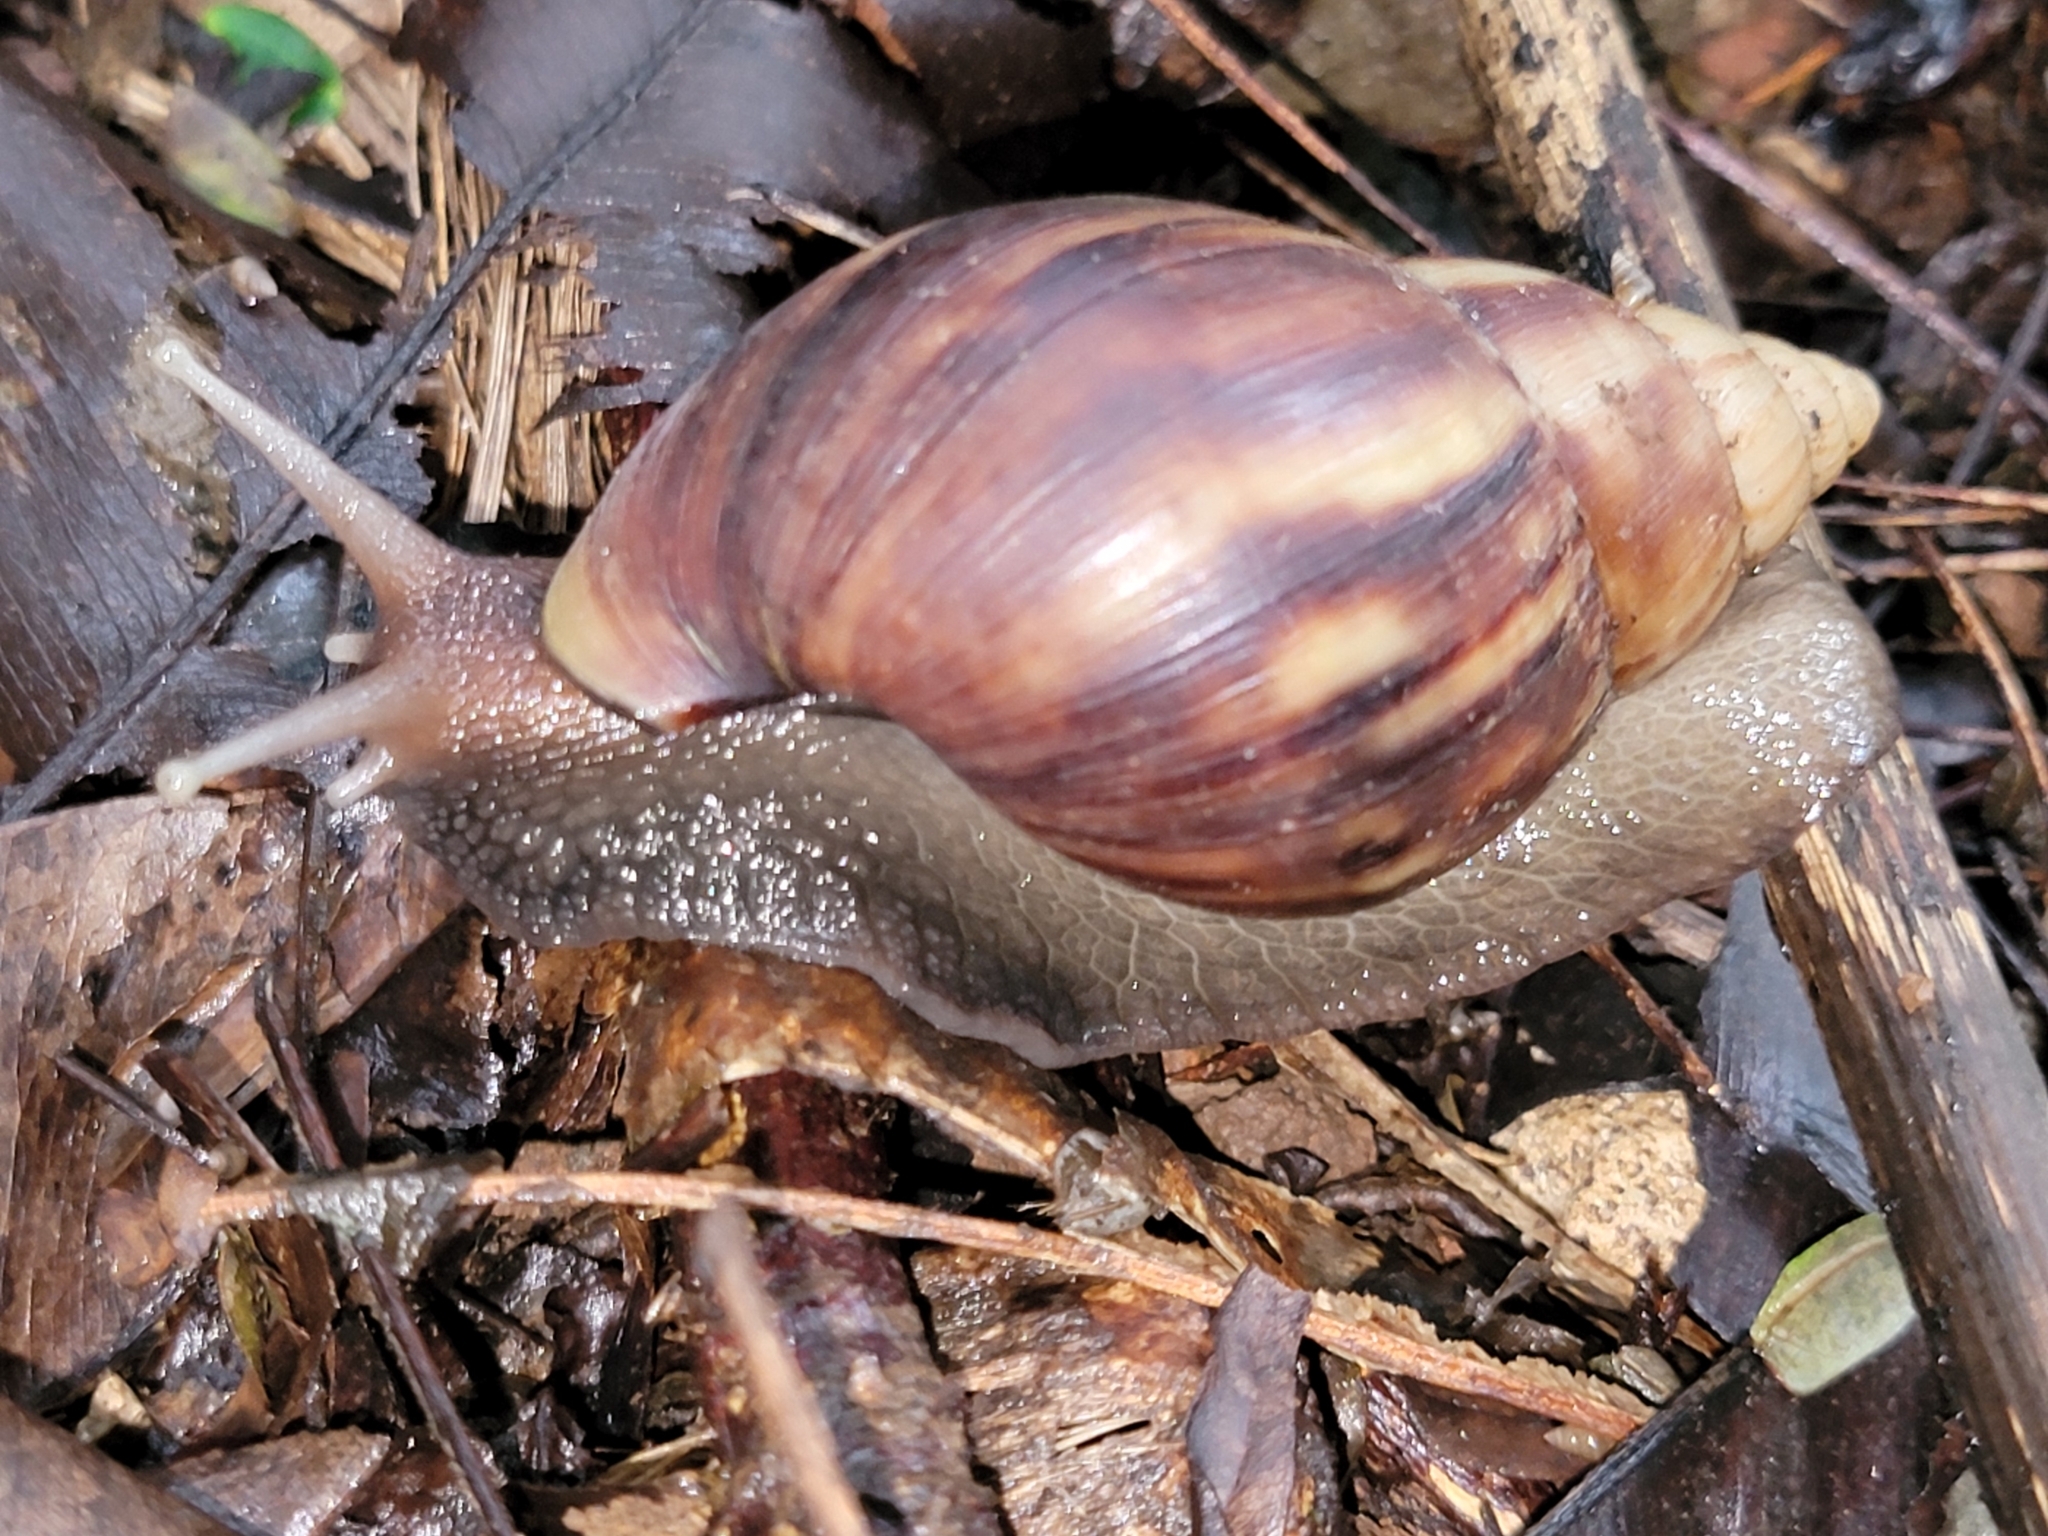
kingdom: Animalia
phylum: Mollusca
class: Gastropoda
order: Stylommatophora
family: Achatinidae
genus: Lissachatina
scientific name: Lissachatina fulica
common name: Giant african snail
